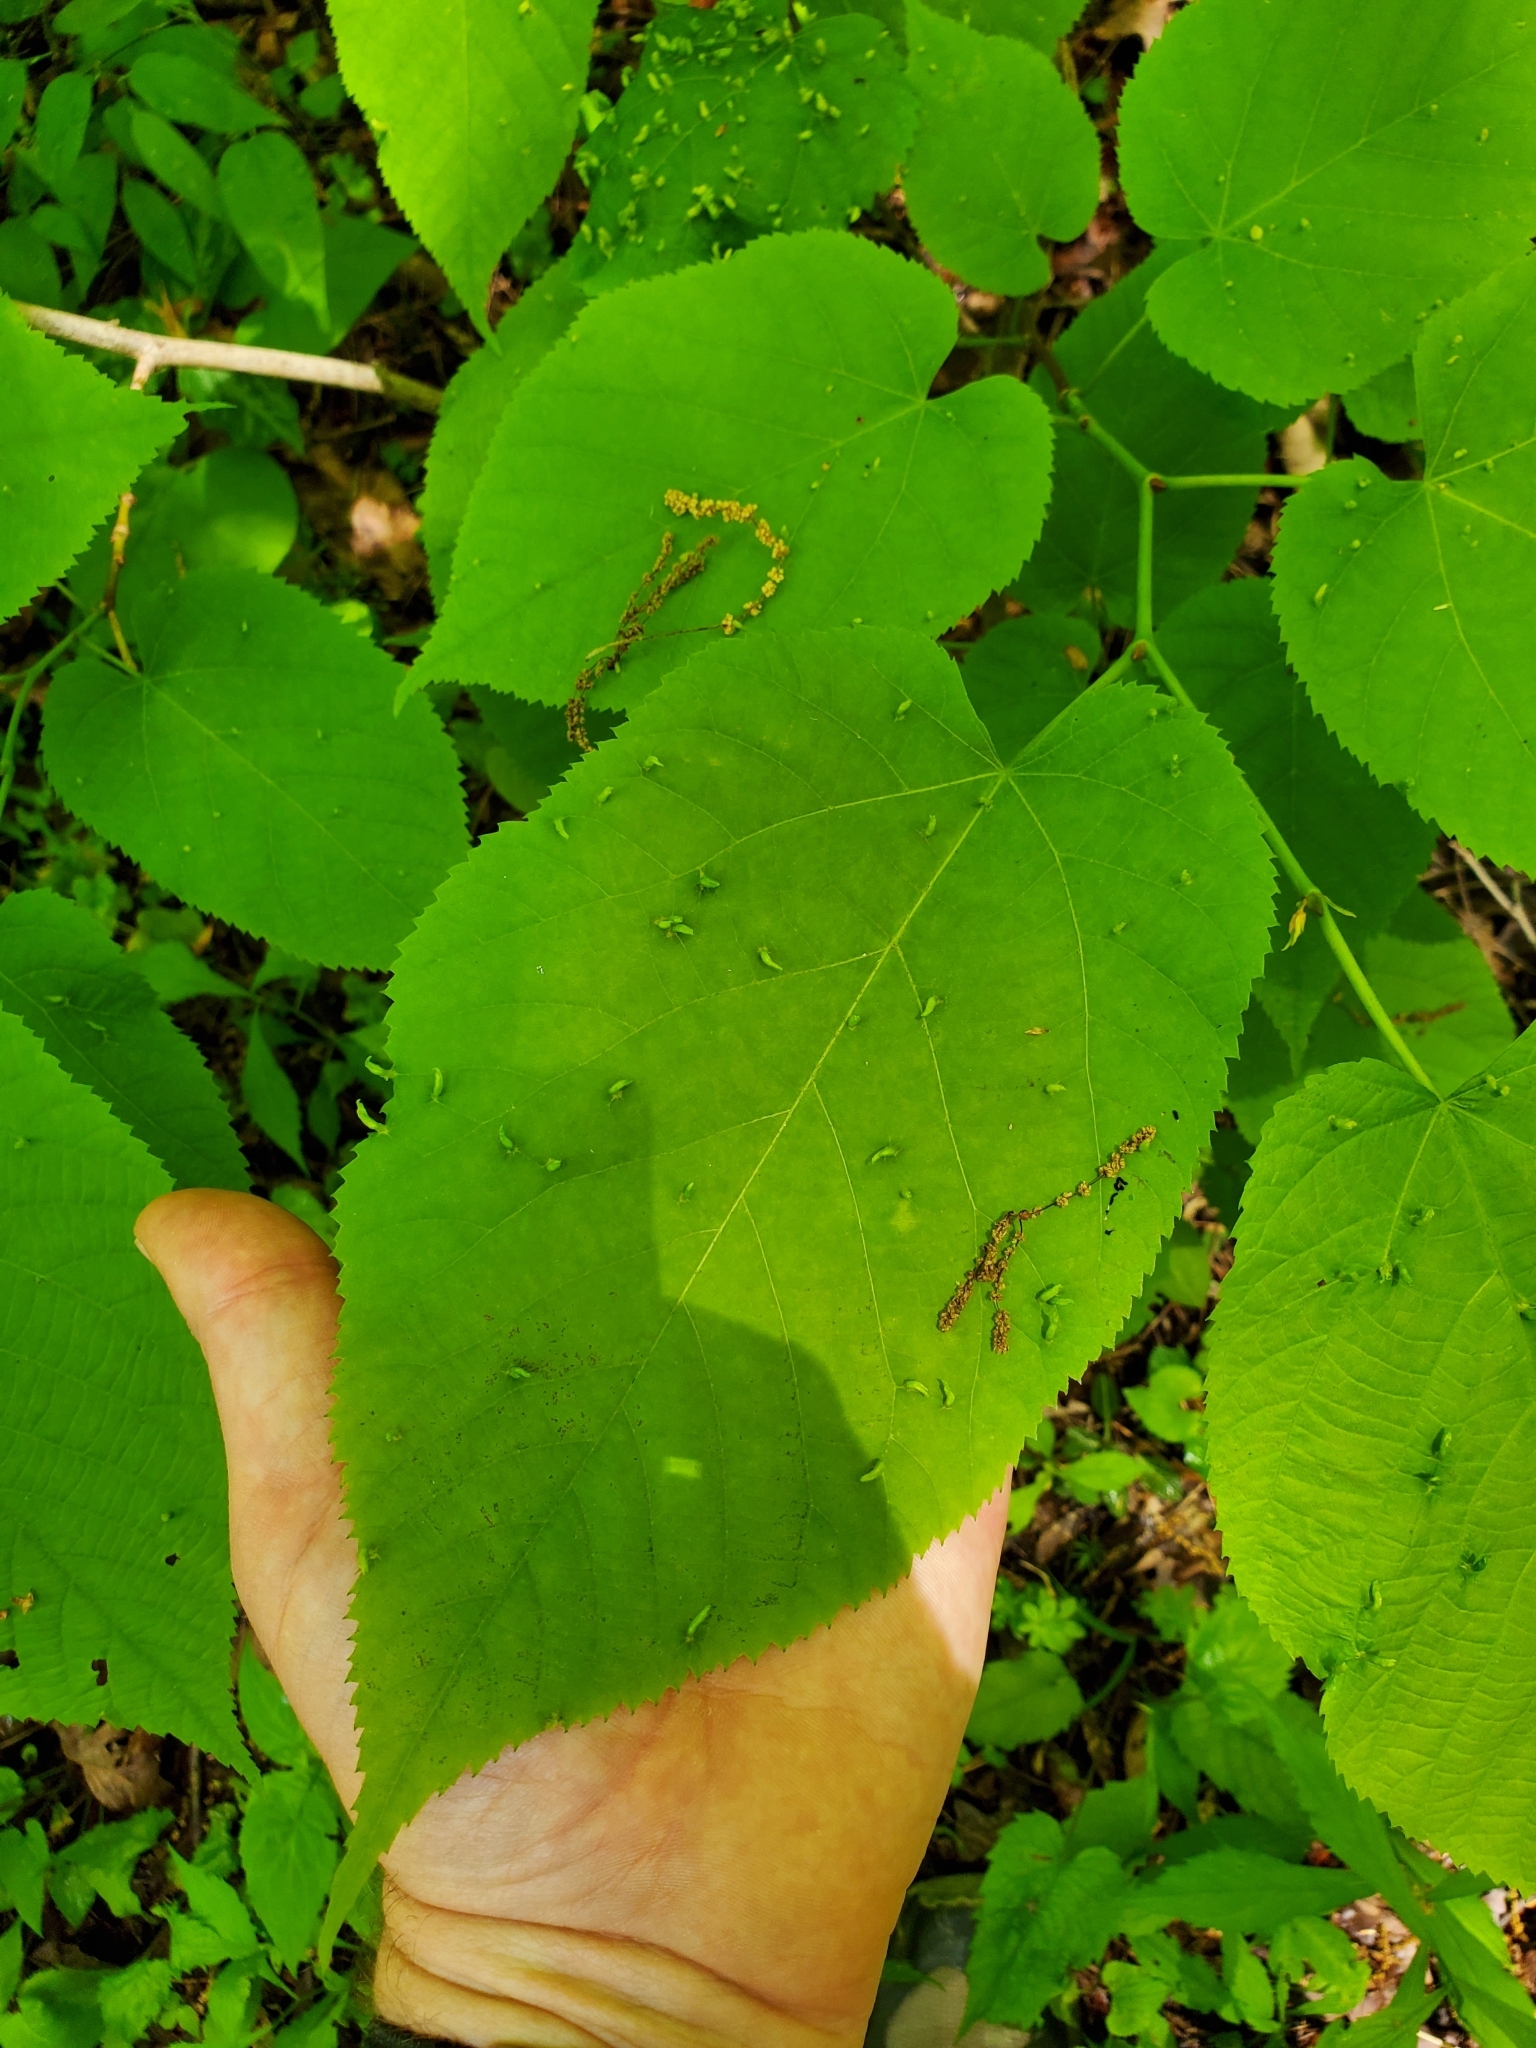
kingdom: Animalia
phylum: Arthropoda
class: Arachnida
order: Trombidiformes
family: Eriophyidae
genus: Eriophyes
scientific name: Eriophyes tiliae
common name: Red nail gall mite
